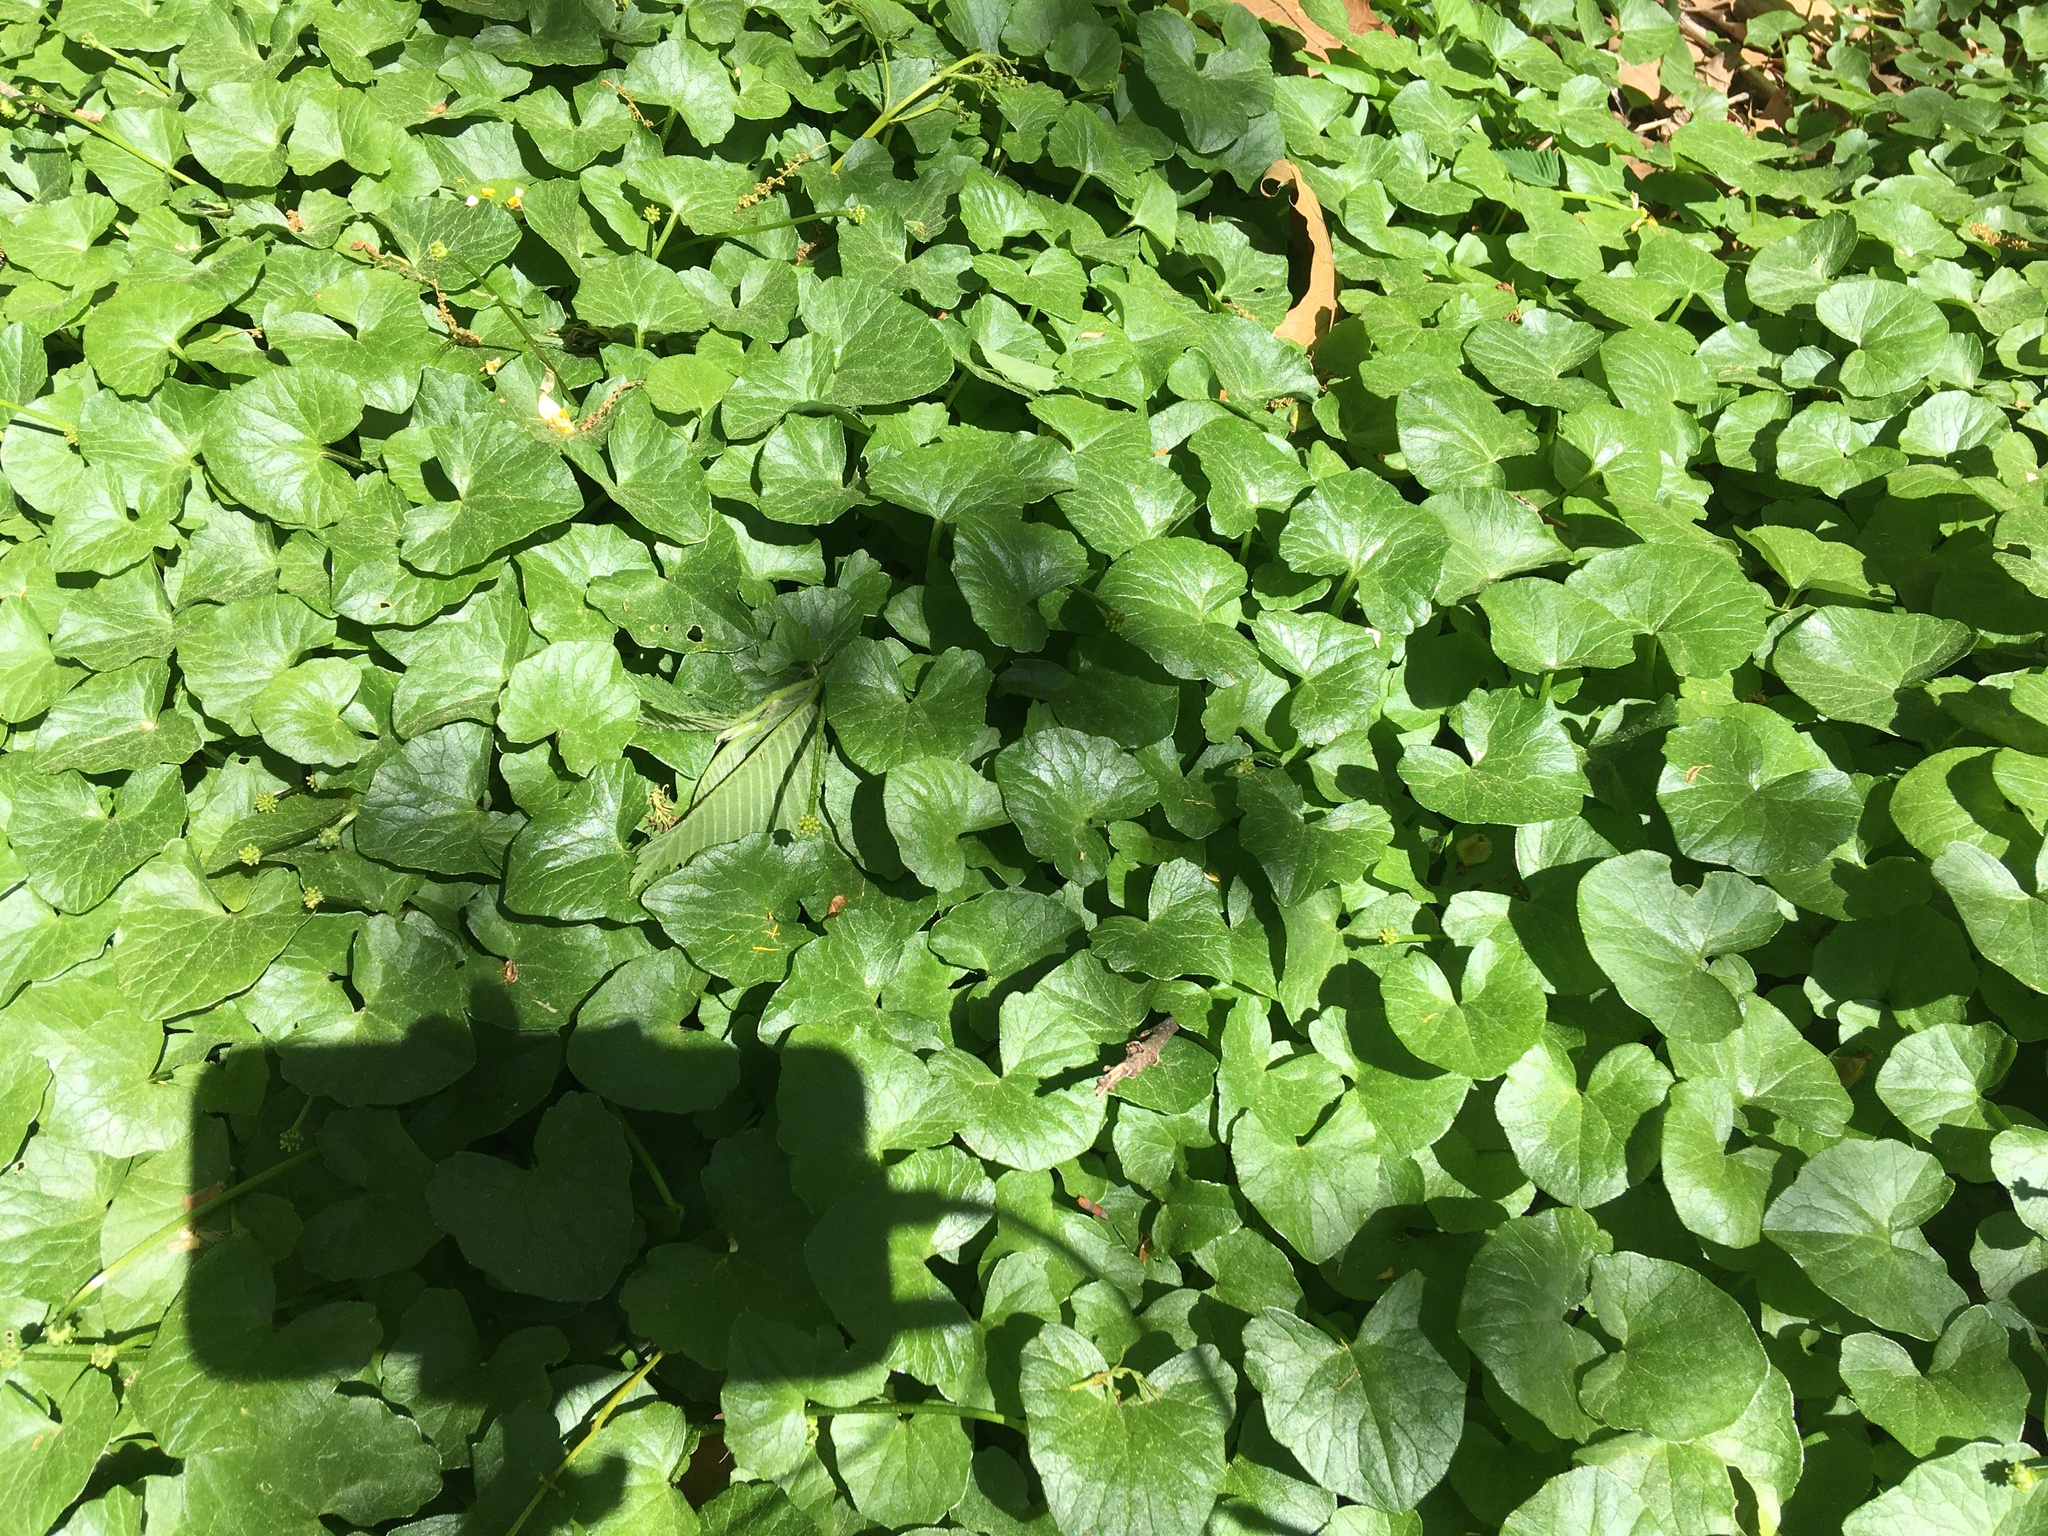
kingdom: Plantae
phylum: Tracheophyta
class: Magnoliopsida
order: Ranunculales
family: Ranunculaceae
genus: Ficaria
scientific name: Ficaria verna
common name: Lesser celandine
